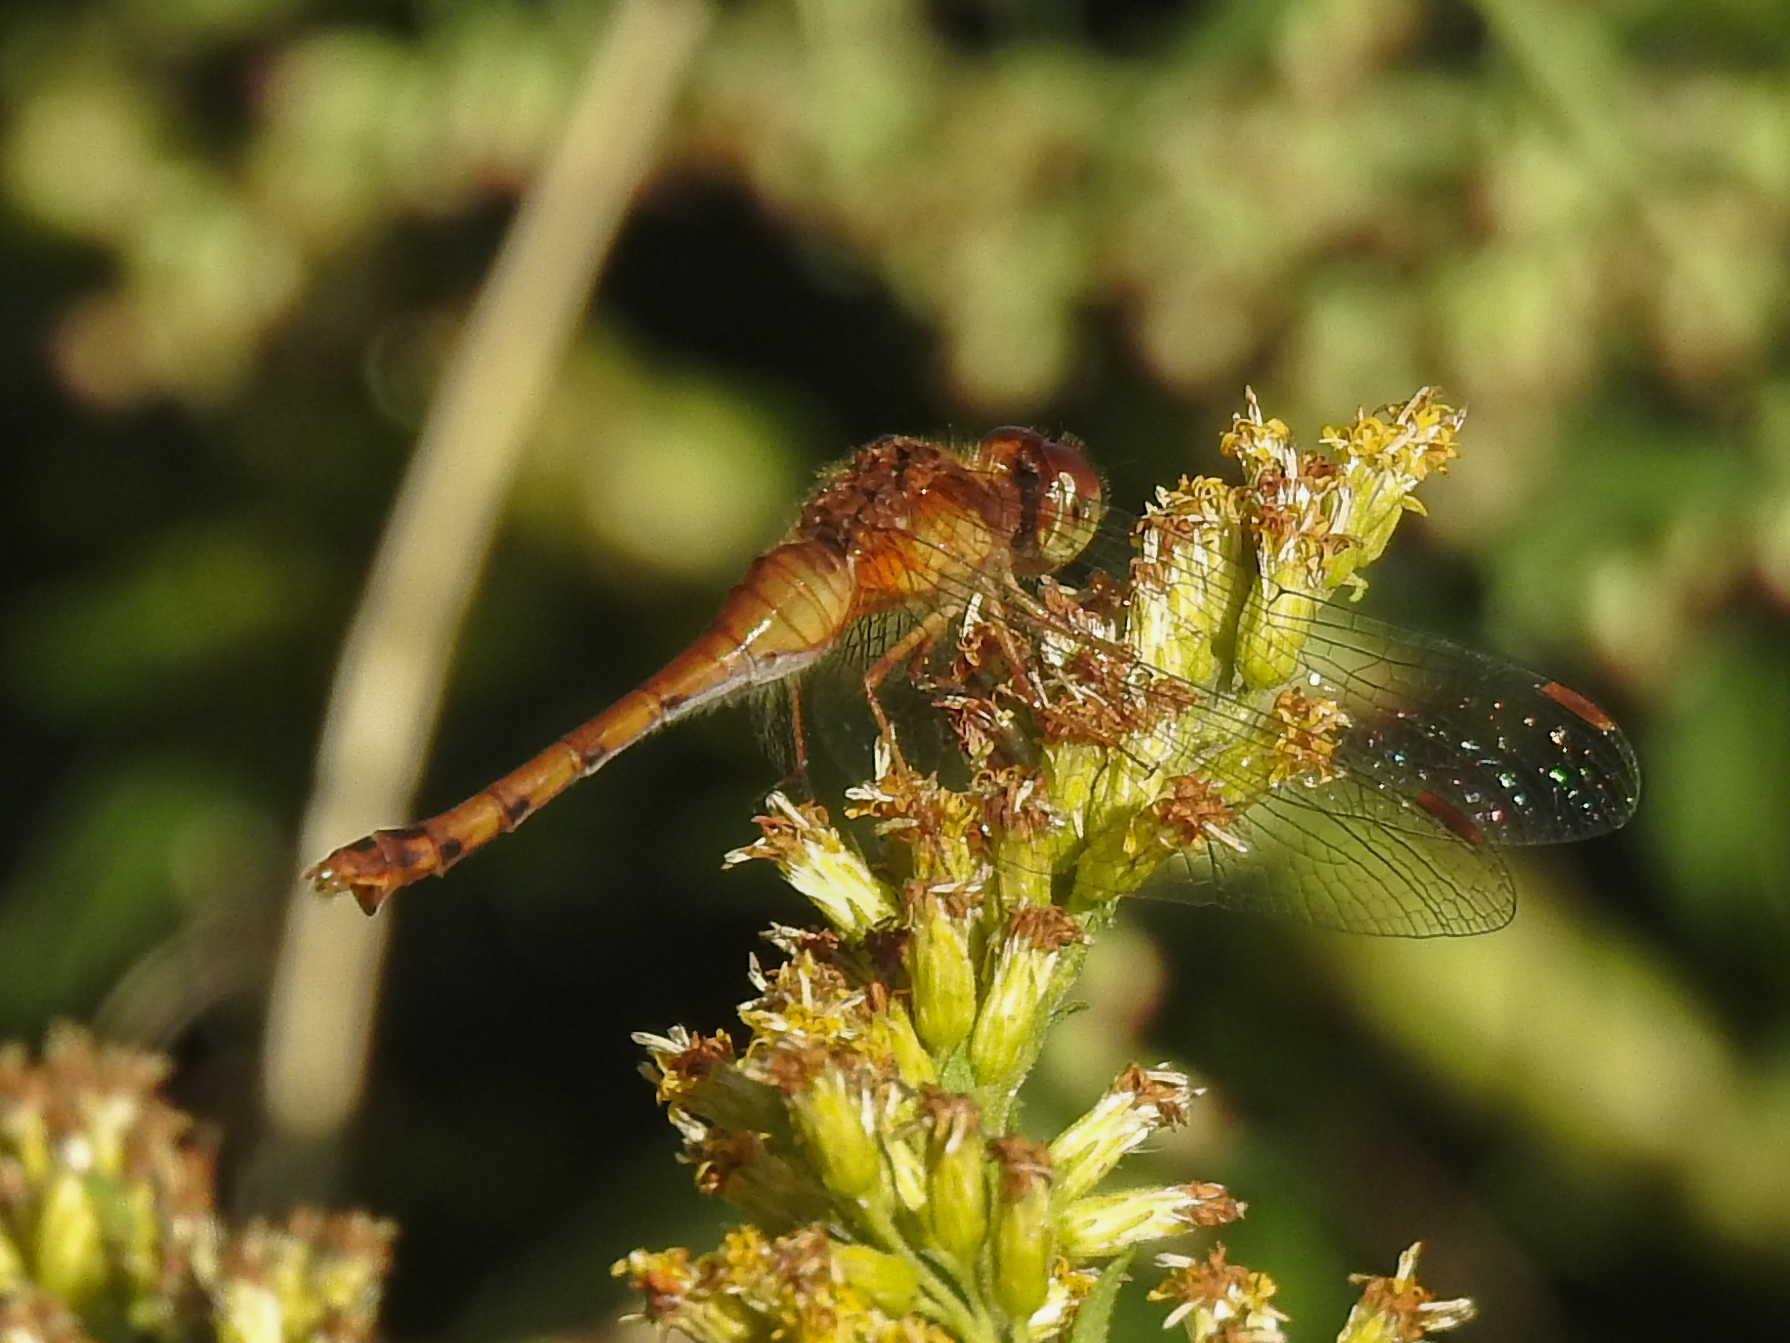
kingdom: Animalia
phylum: Arthropoda
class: Insecta
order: Odonata
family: Libellulidae
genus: Sympetrum
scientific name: Sympetrum vicinum
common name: Autumn meadowhawk
